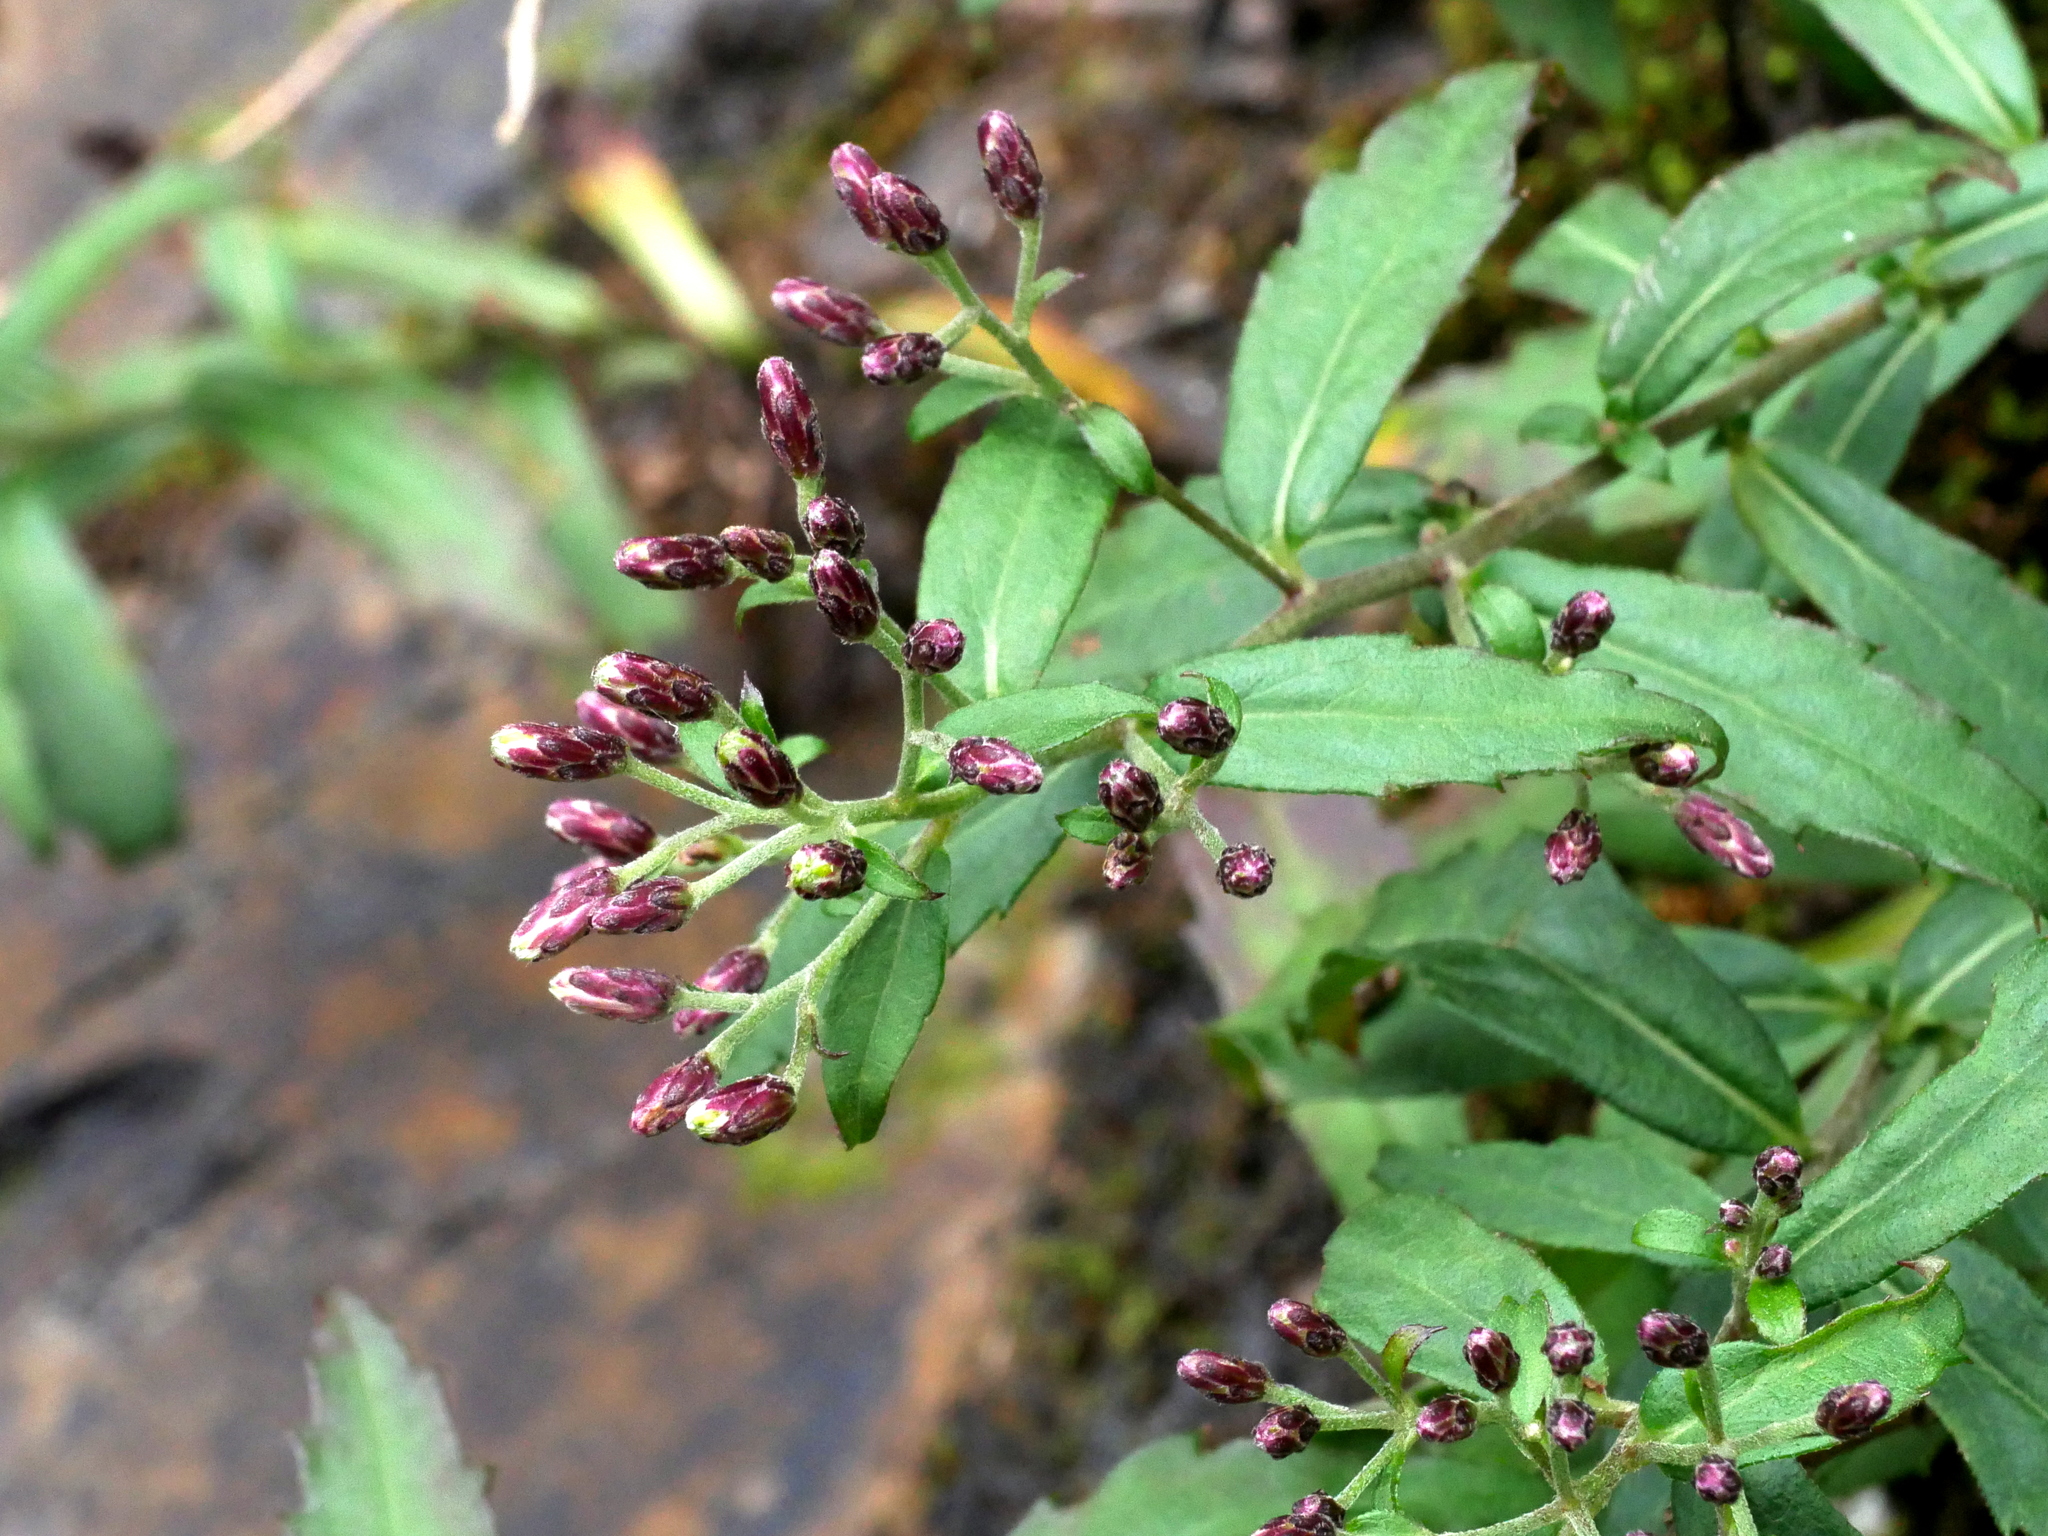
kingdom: Plantae
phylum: Tracheophyta
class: Magnoliopsida
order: Asterales
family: Asteraceae
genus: Aster
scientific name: Aster taiwanensis
